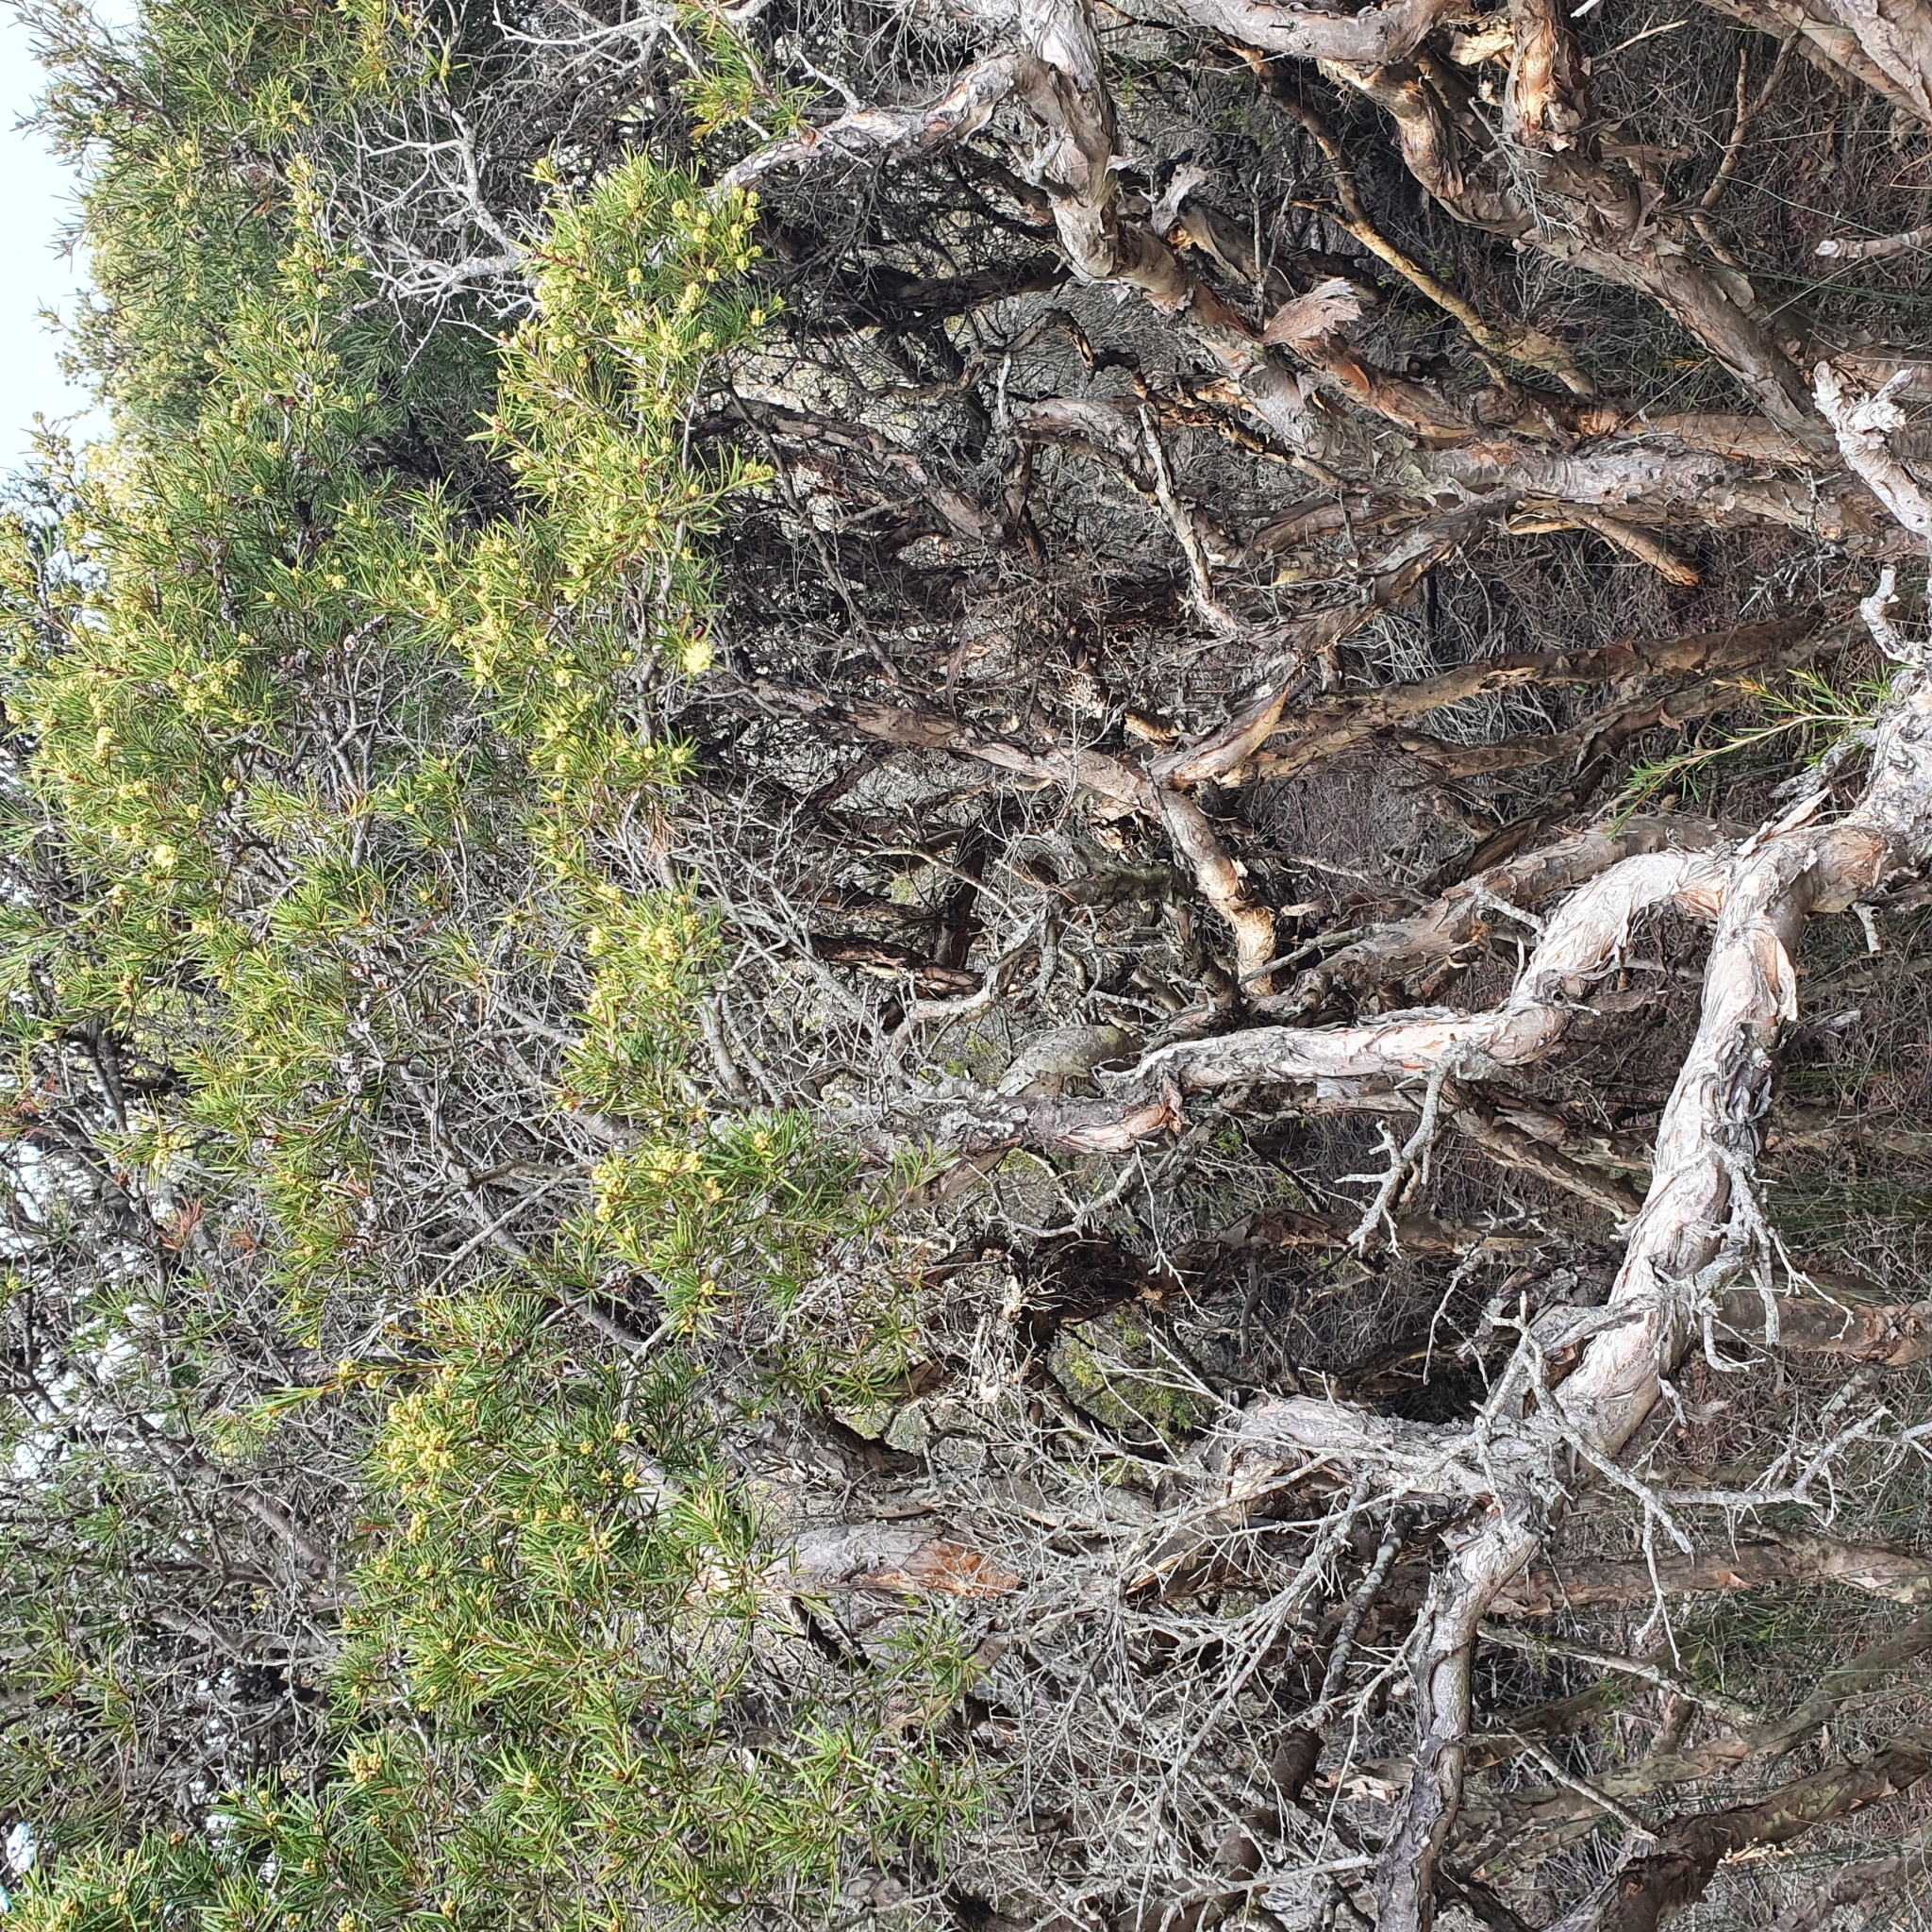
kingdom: Plantae
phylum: Tracheophyta
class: Magnoliopsida
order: Myrtales
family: Myrtaceae
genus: Melaleuca
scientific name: Melaleuca nodosa
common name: Prickly-leaf paperbark
